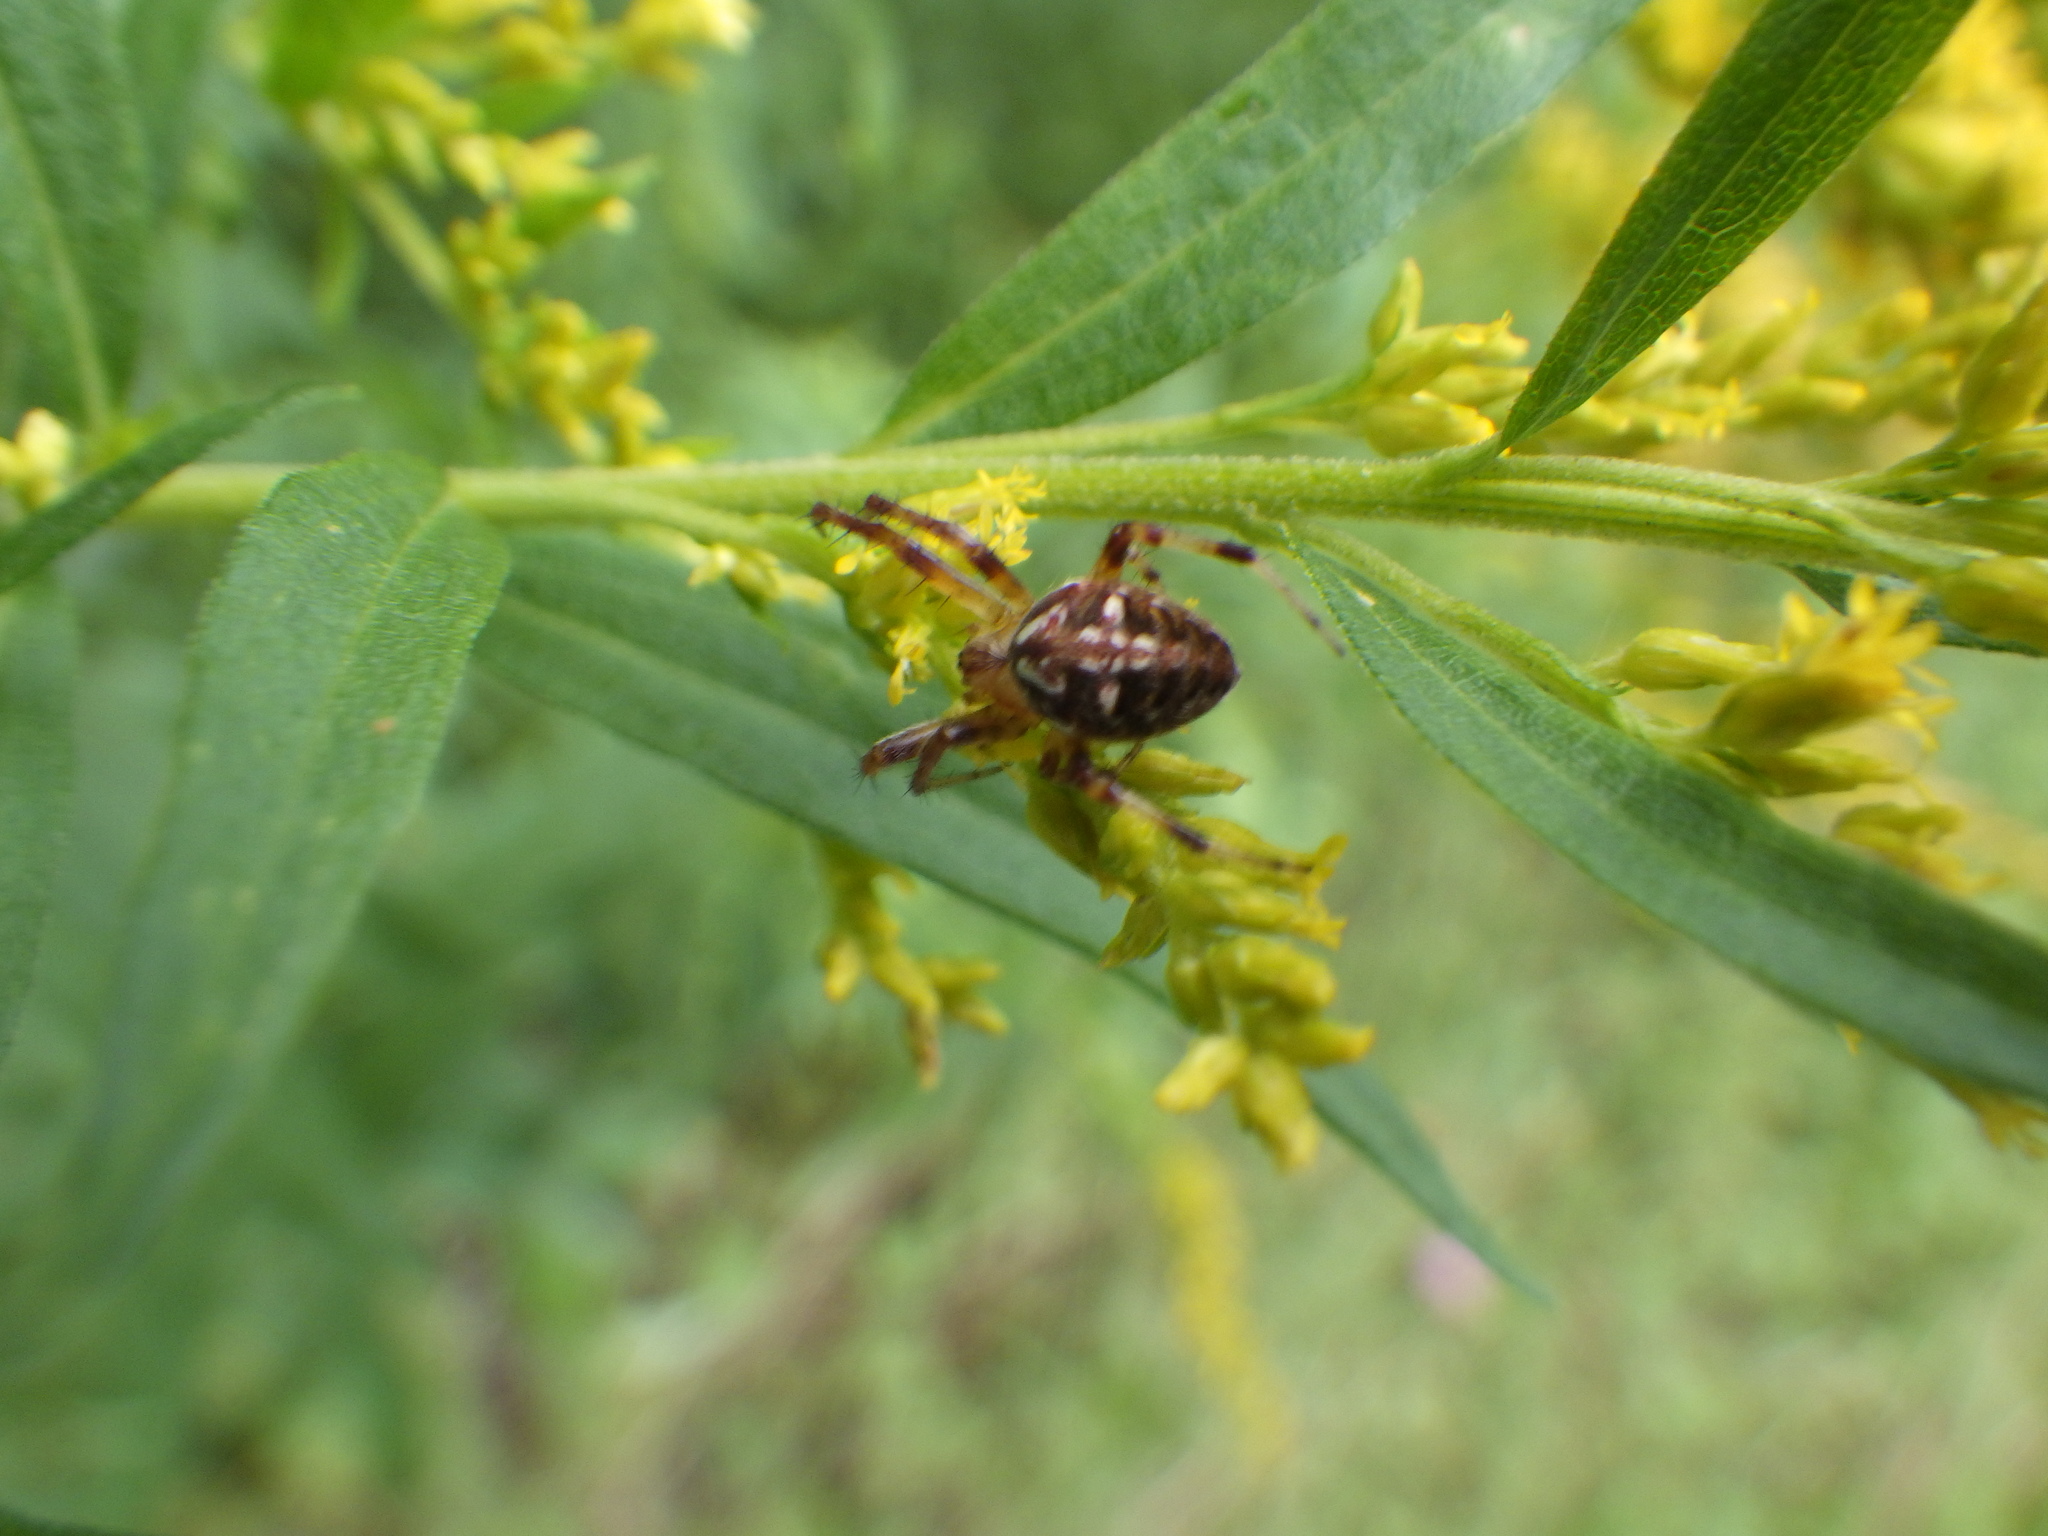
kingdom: Animalia
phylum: Arthropoda
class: Arachnida
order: Araneae
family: Araneidae
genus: Neoscona
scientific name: Neoscona arabesca
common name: Orb weavers
